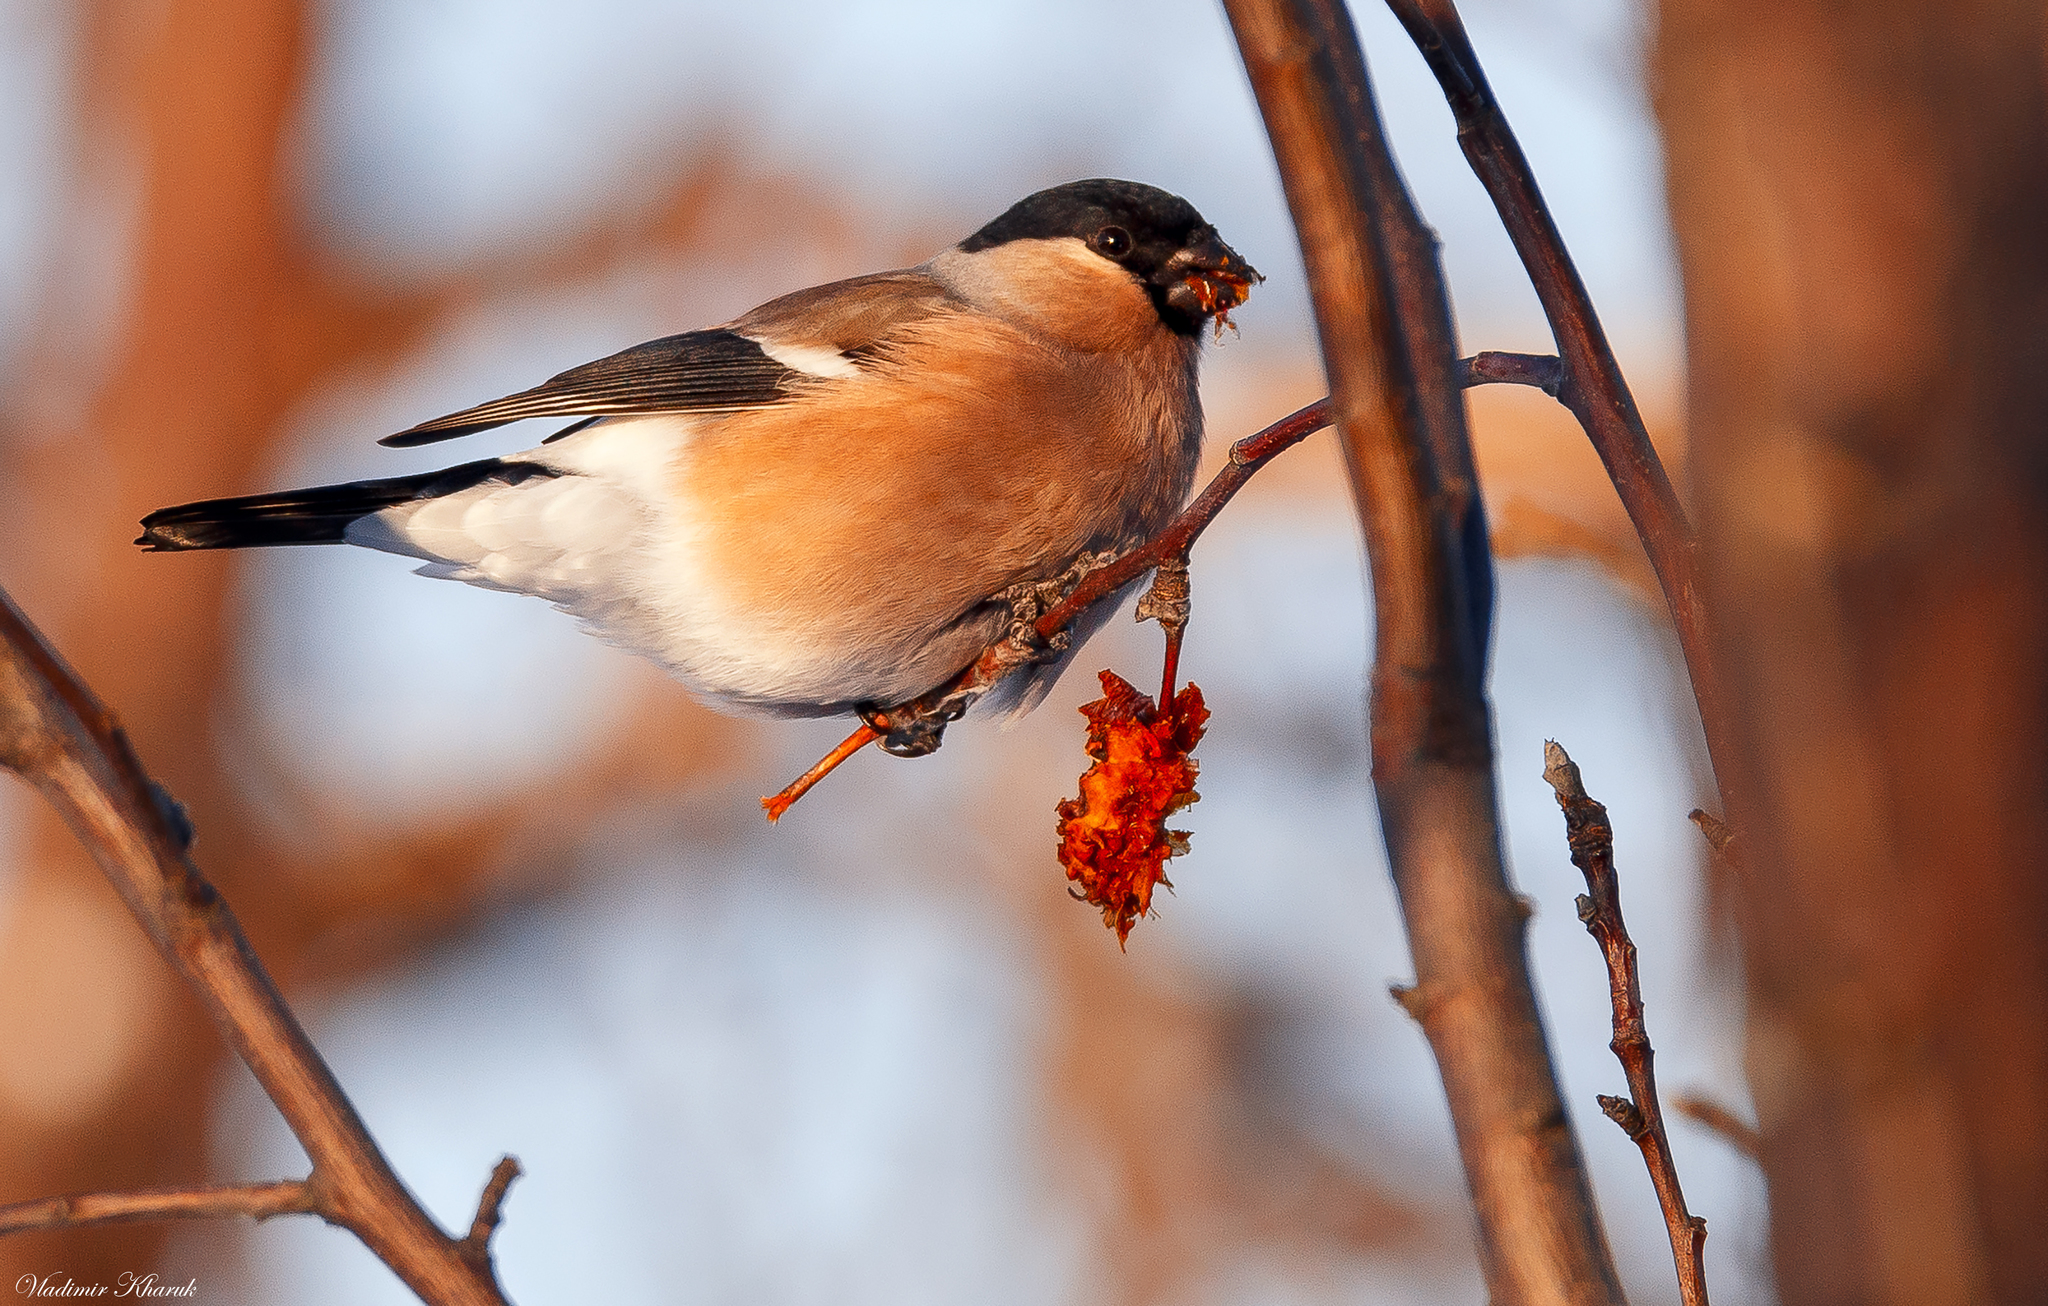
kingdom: Animalia
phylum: Chordata
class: Aves
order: Passeriformes
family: Fringillidae
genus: Pyrrhula
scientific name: Pyrrhula pyrrhula
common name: Eurasian bullfinch
